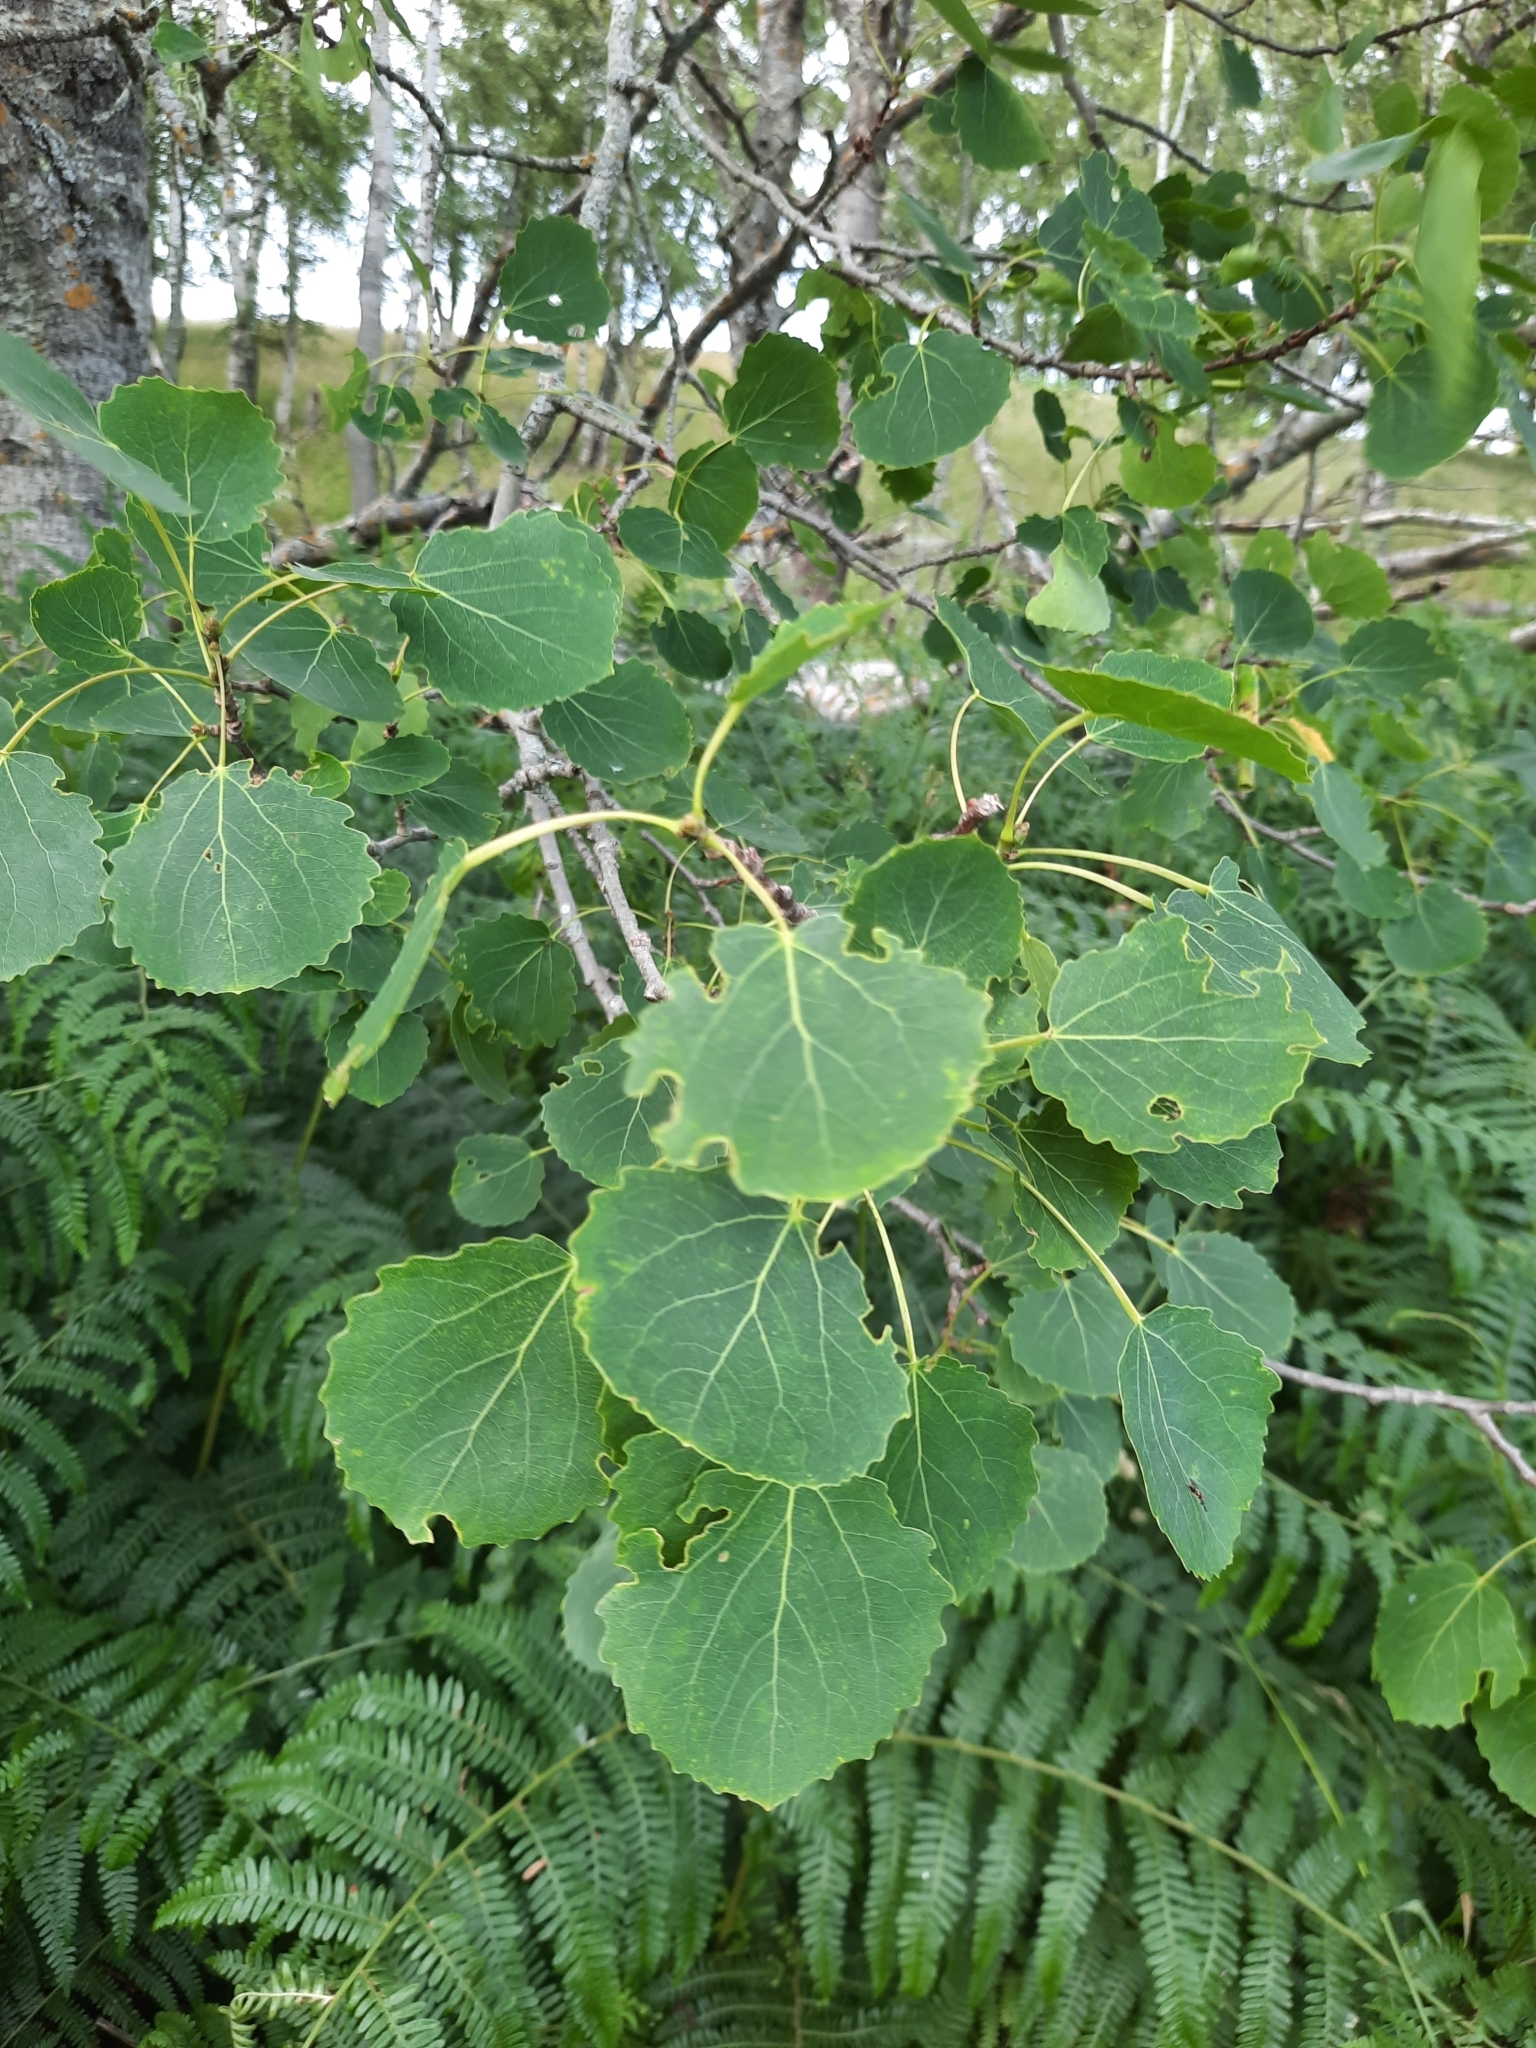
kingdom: Plantae
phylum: Tracheophyta
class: Magnoliopsida
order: Malpighiales
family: Salicaceae
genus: Populus
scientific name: Populus tremula
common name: European aspen
